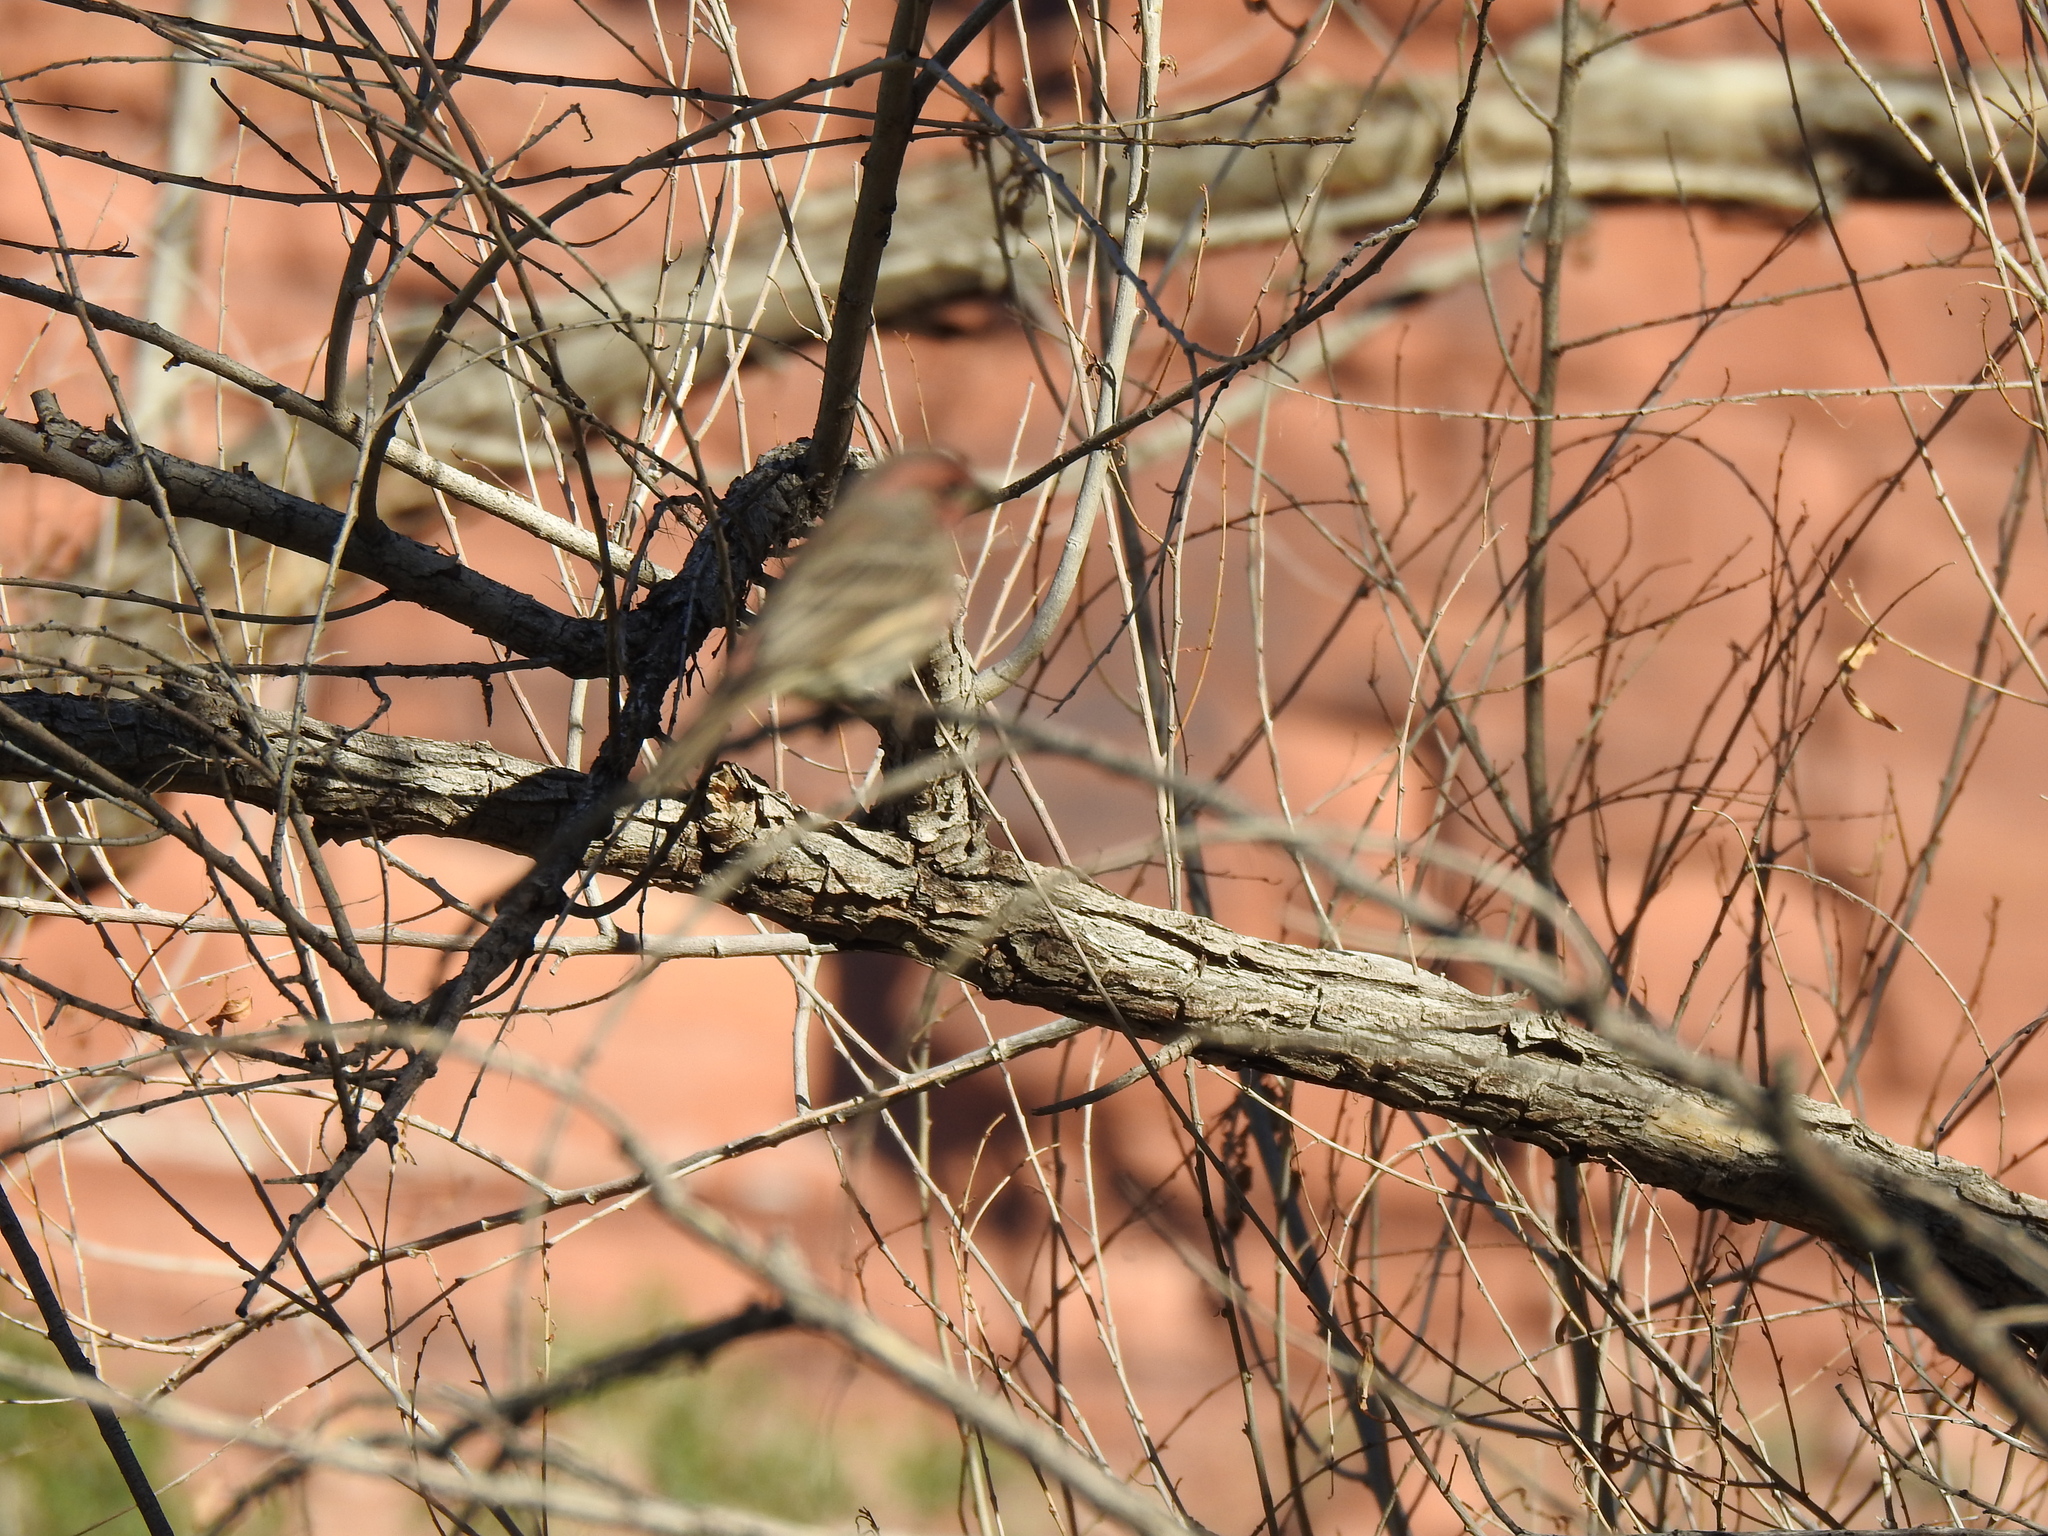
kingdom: Animalia
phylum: Chordata
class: Aves
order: Passeriformes
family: Fringillidae
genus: Haemorhous
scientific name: Haemorhous mexicanus
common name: House finch
